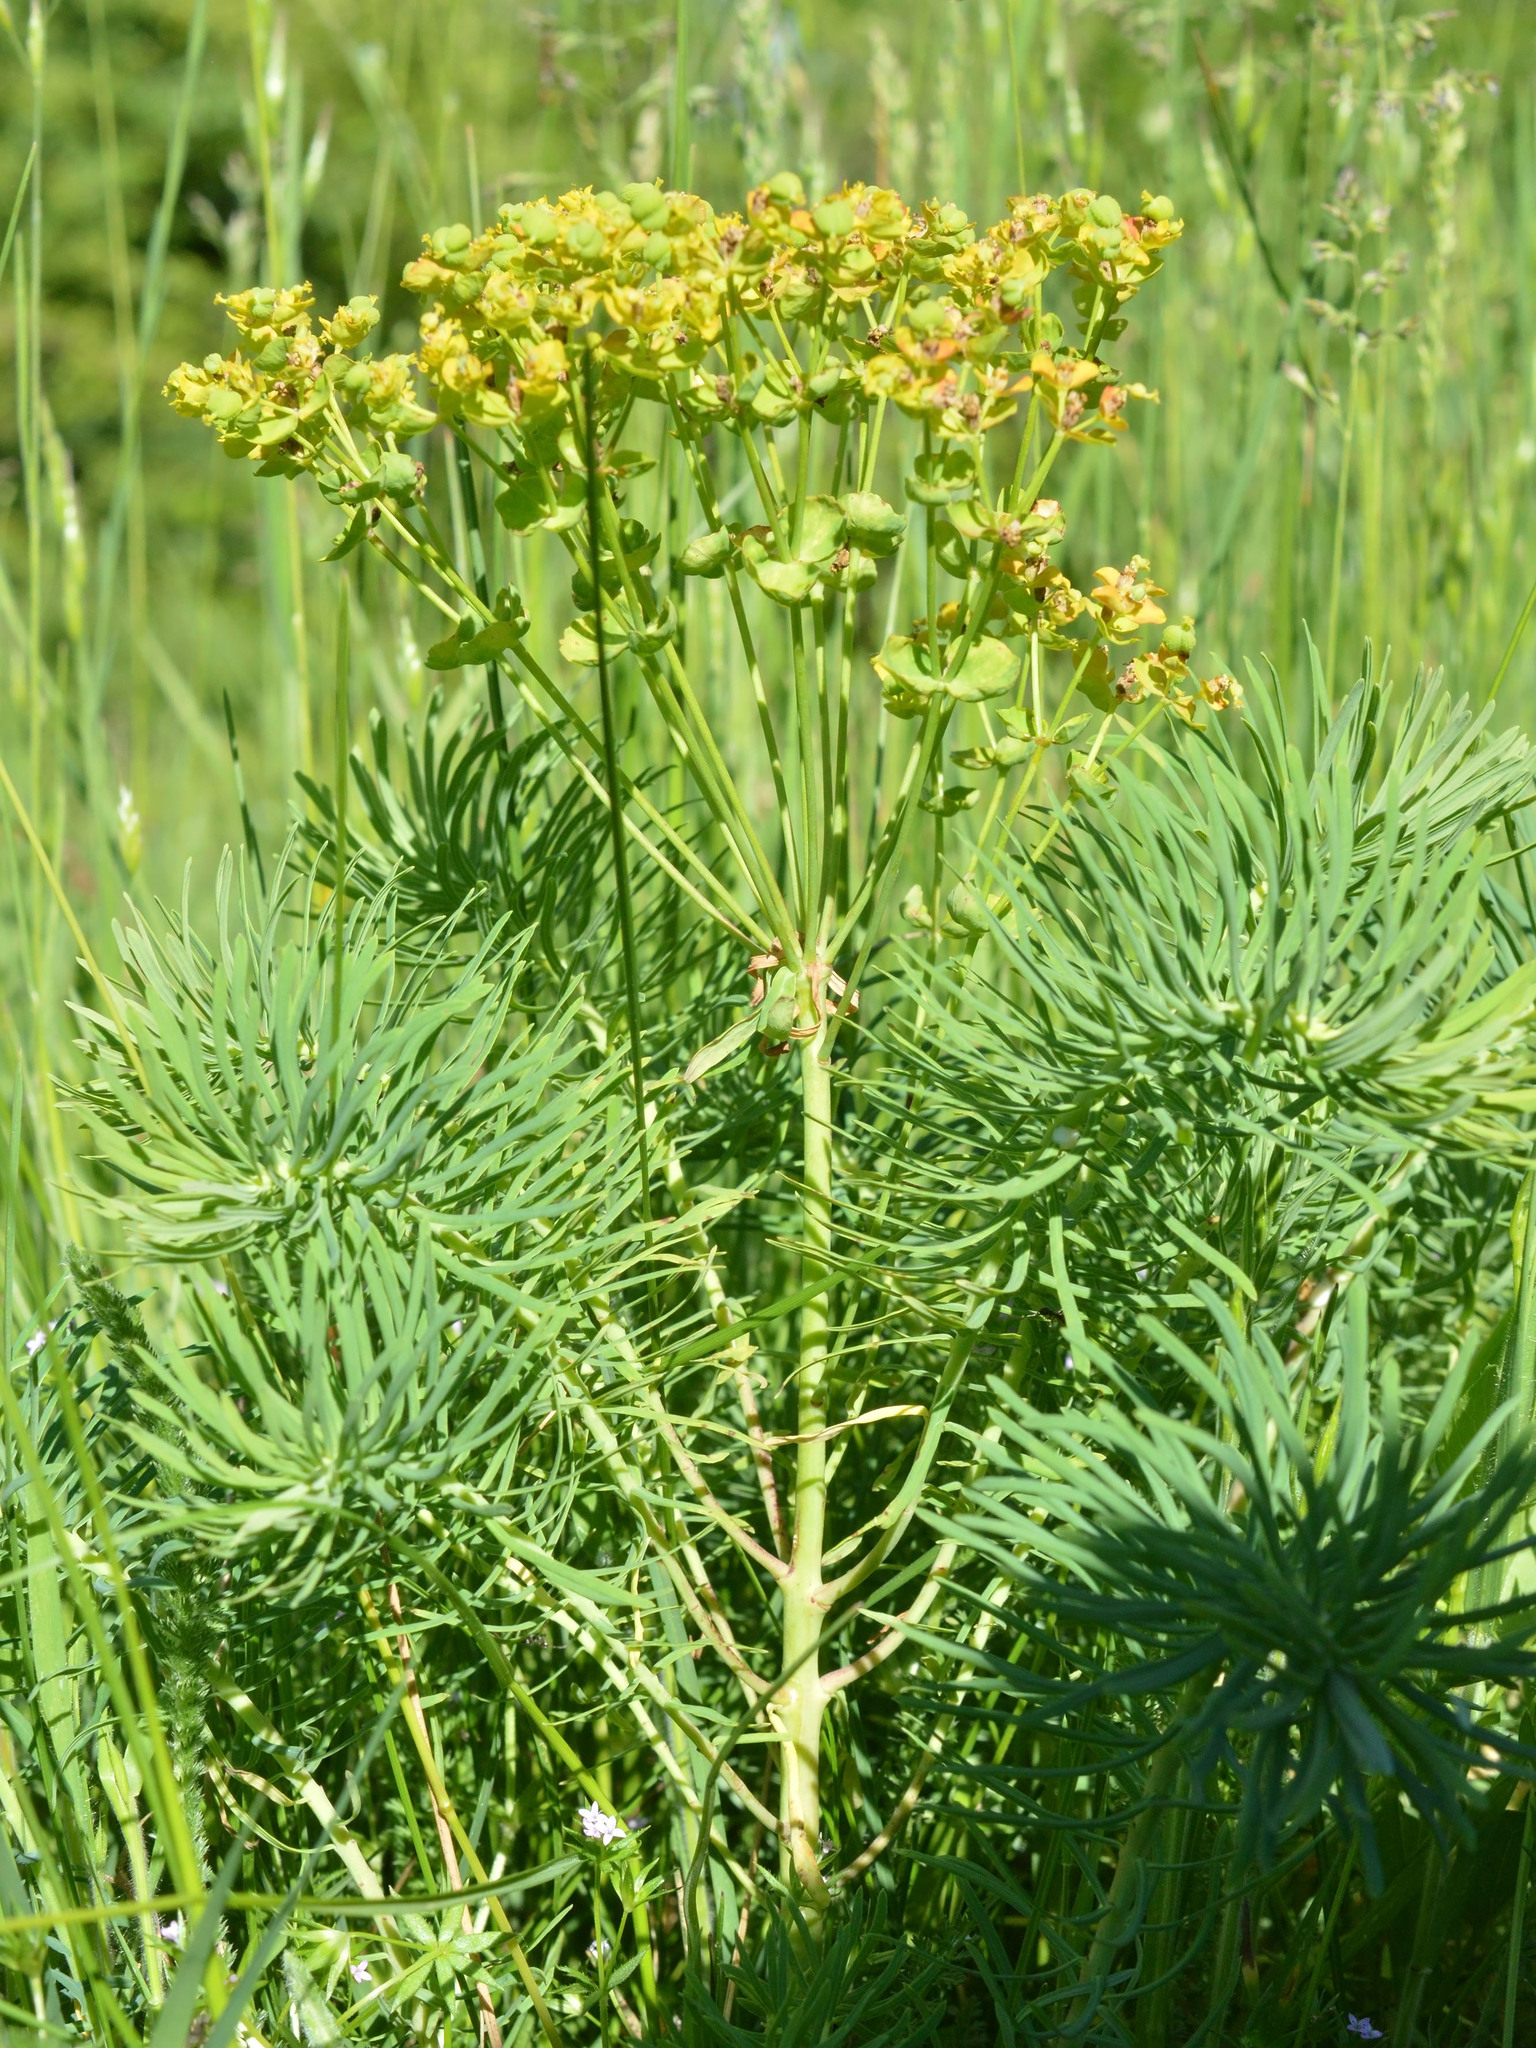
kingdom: Plantae
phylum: Tracheophyta
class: Magnoliopsida
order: Malpighiales
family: Euphorbiaceae
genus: Euphorbia
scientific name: Euphorbia cyparissias
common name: Cypress spurge
